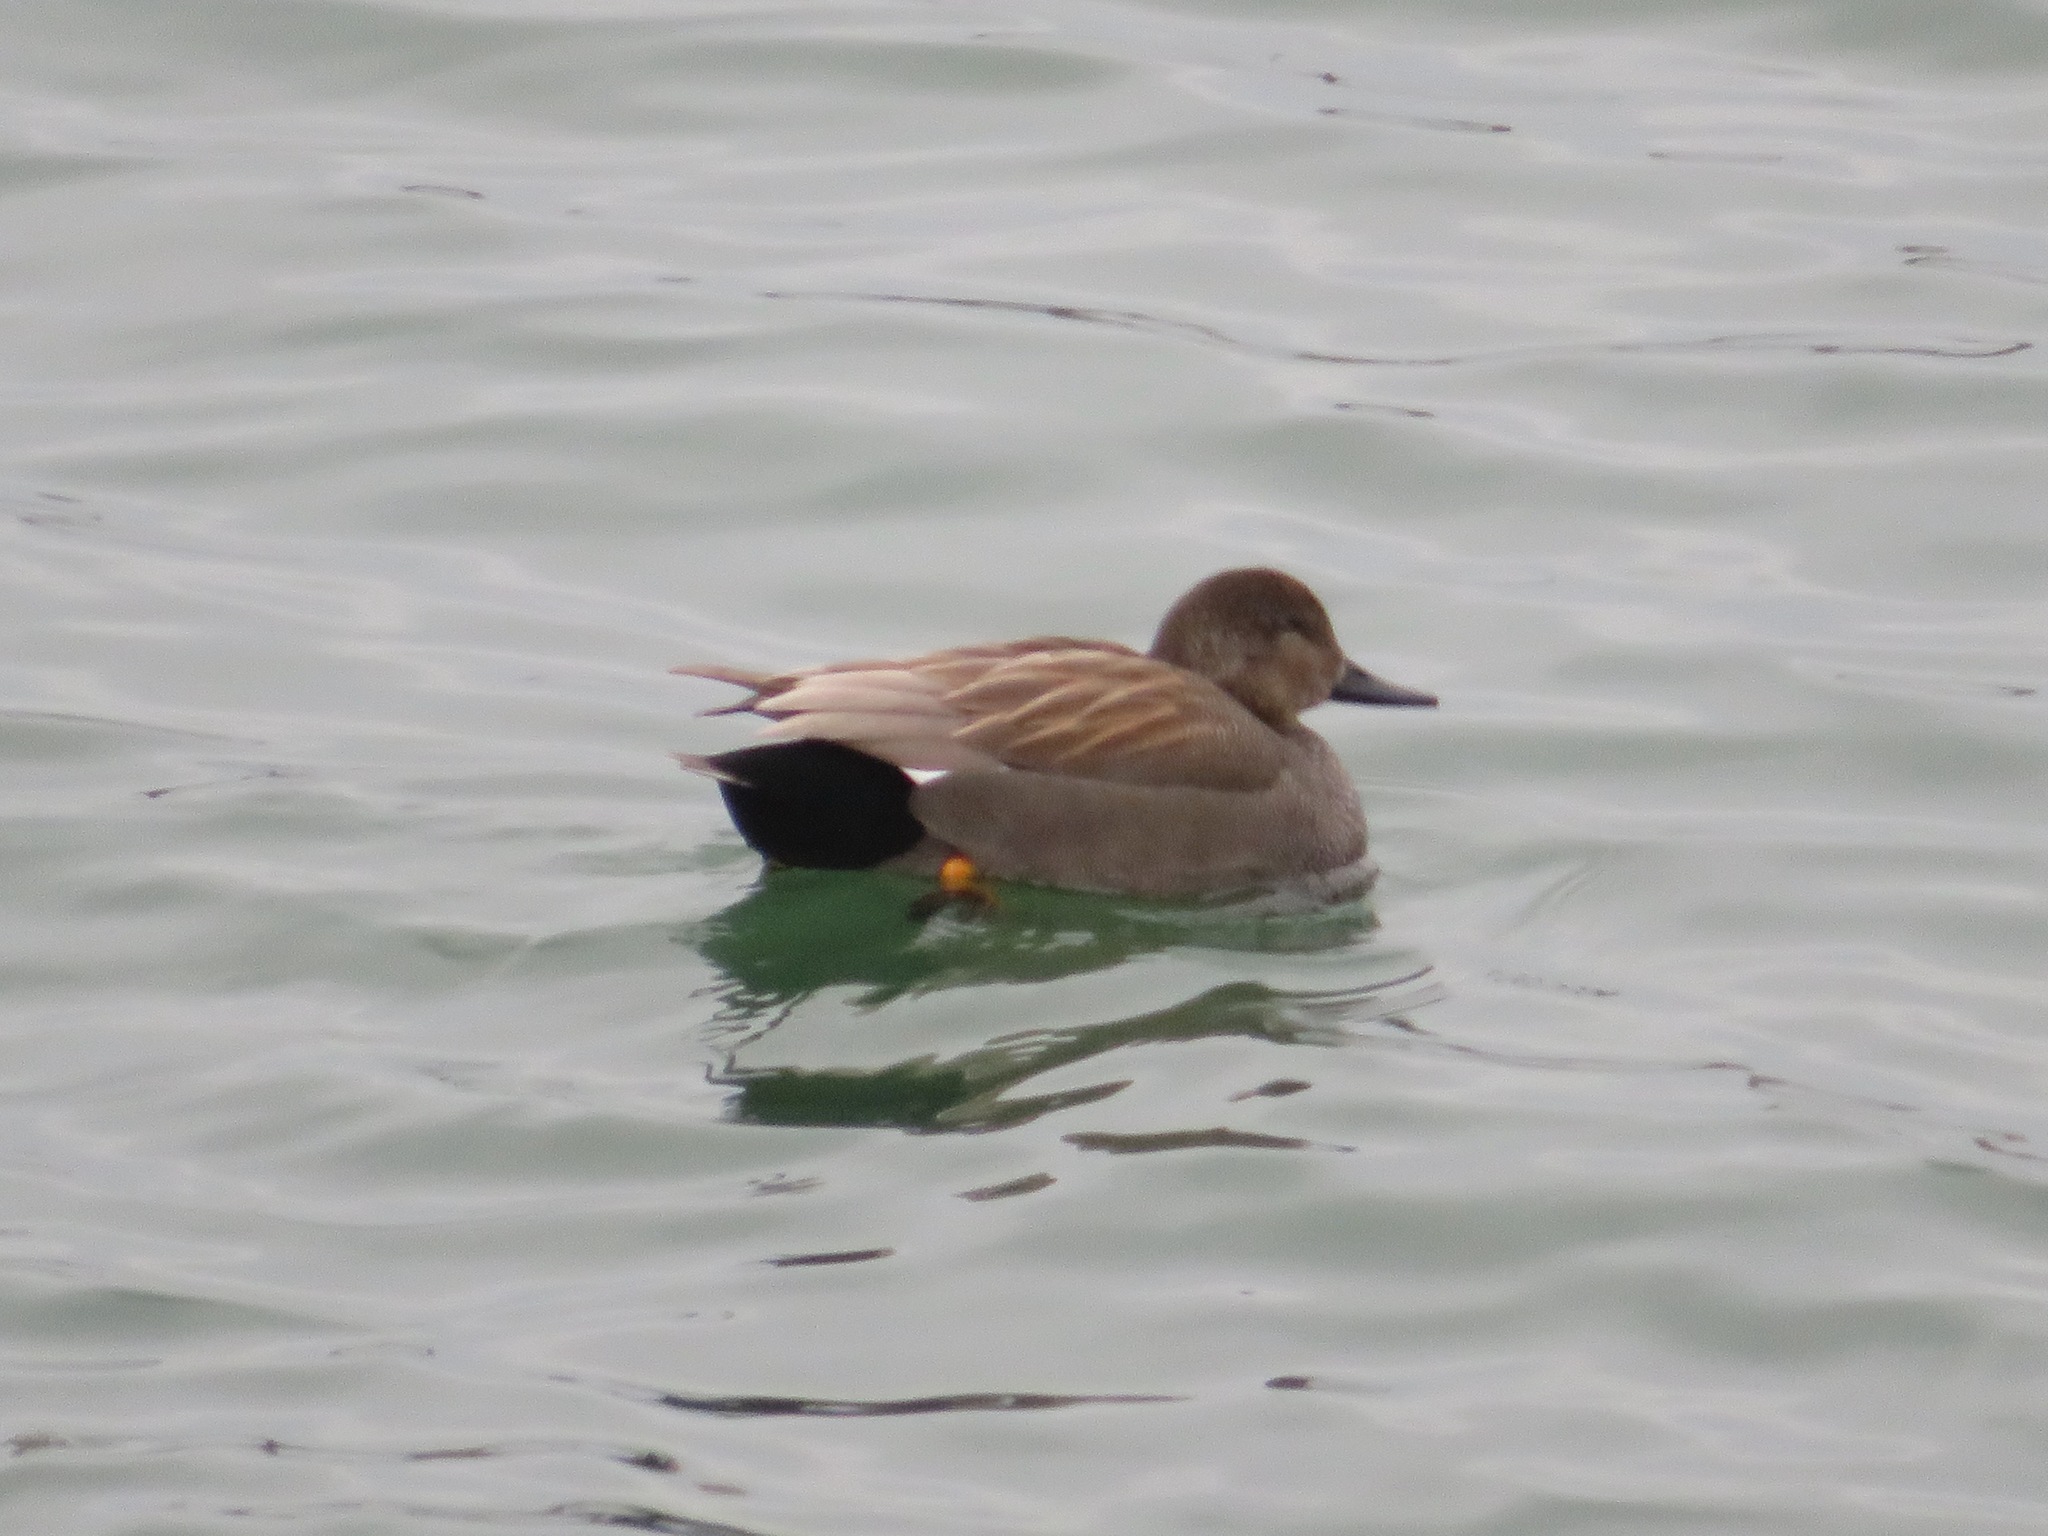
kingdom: Animalia
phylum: Chordata
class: Aves
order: Anseriformes
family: Anatidae
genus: Mareca
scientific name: Mareca strepera
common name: Gadwall
